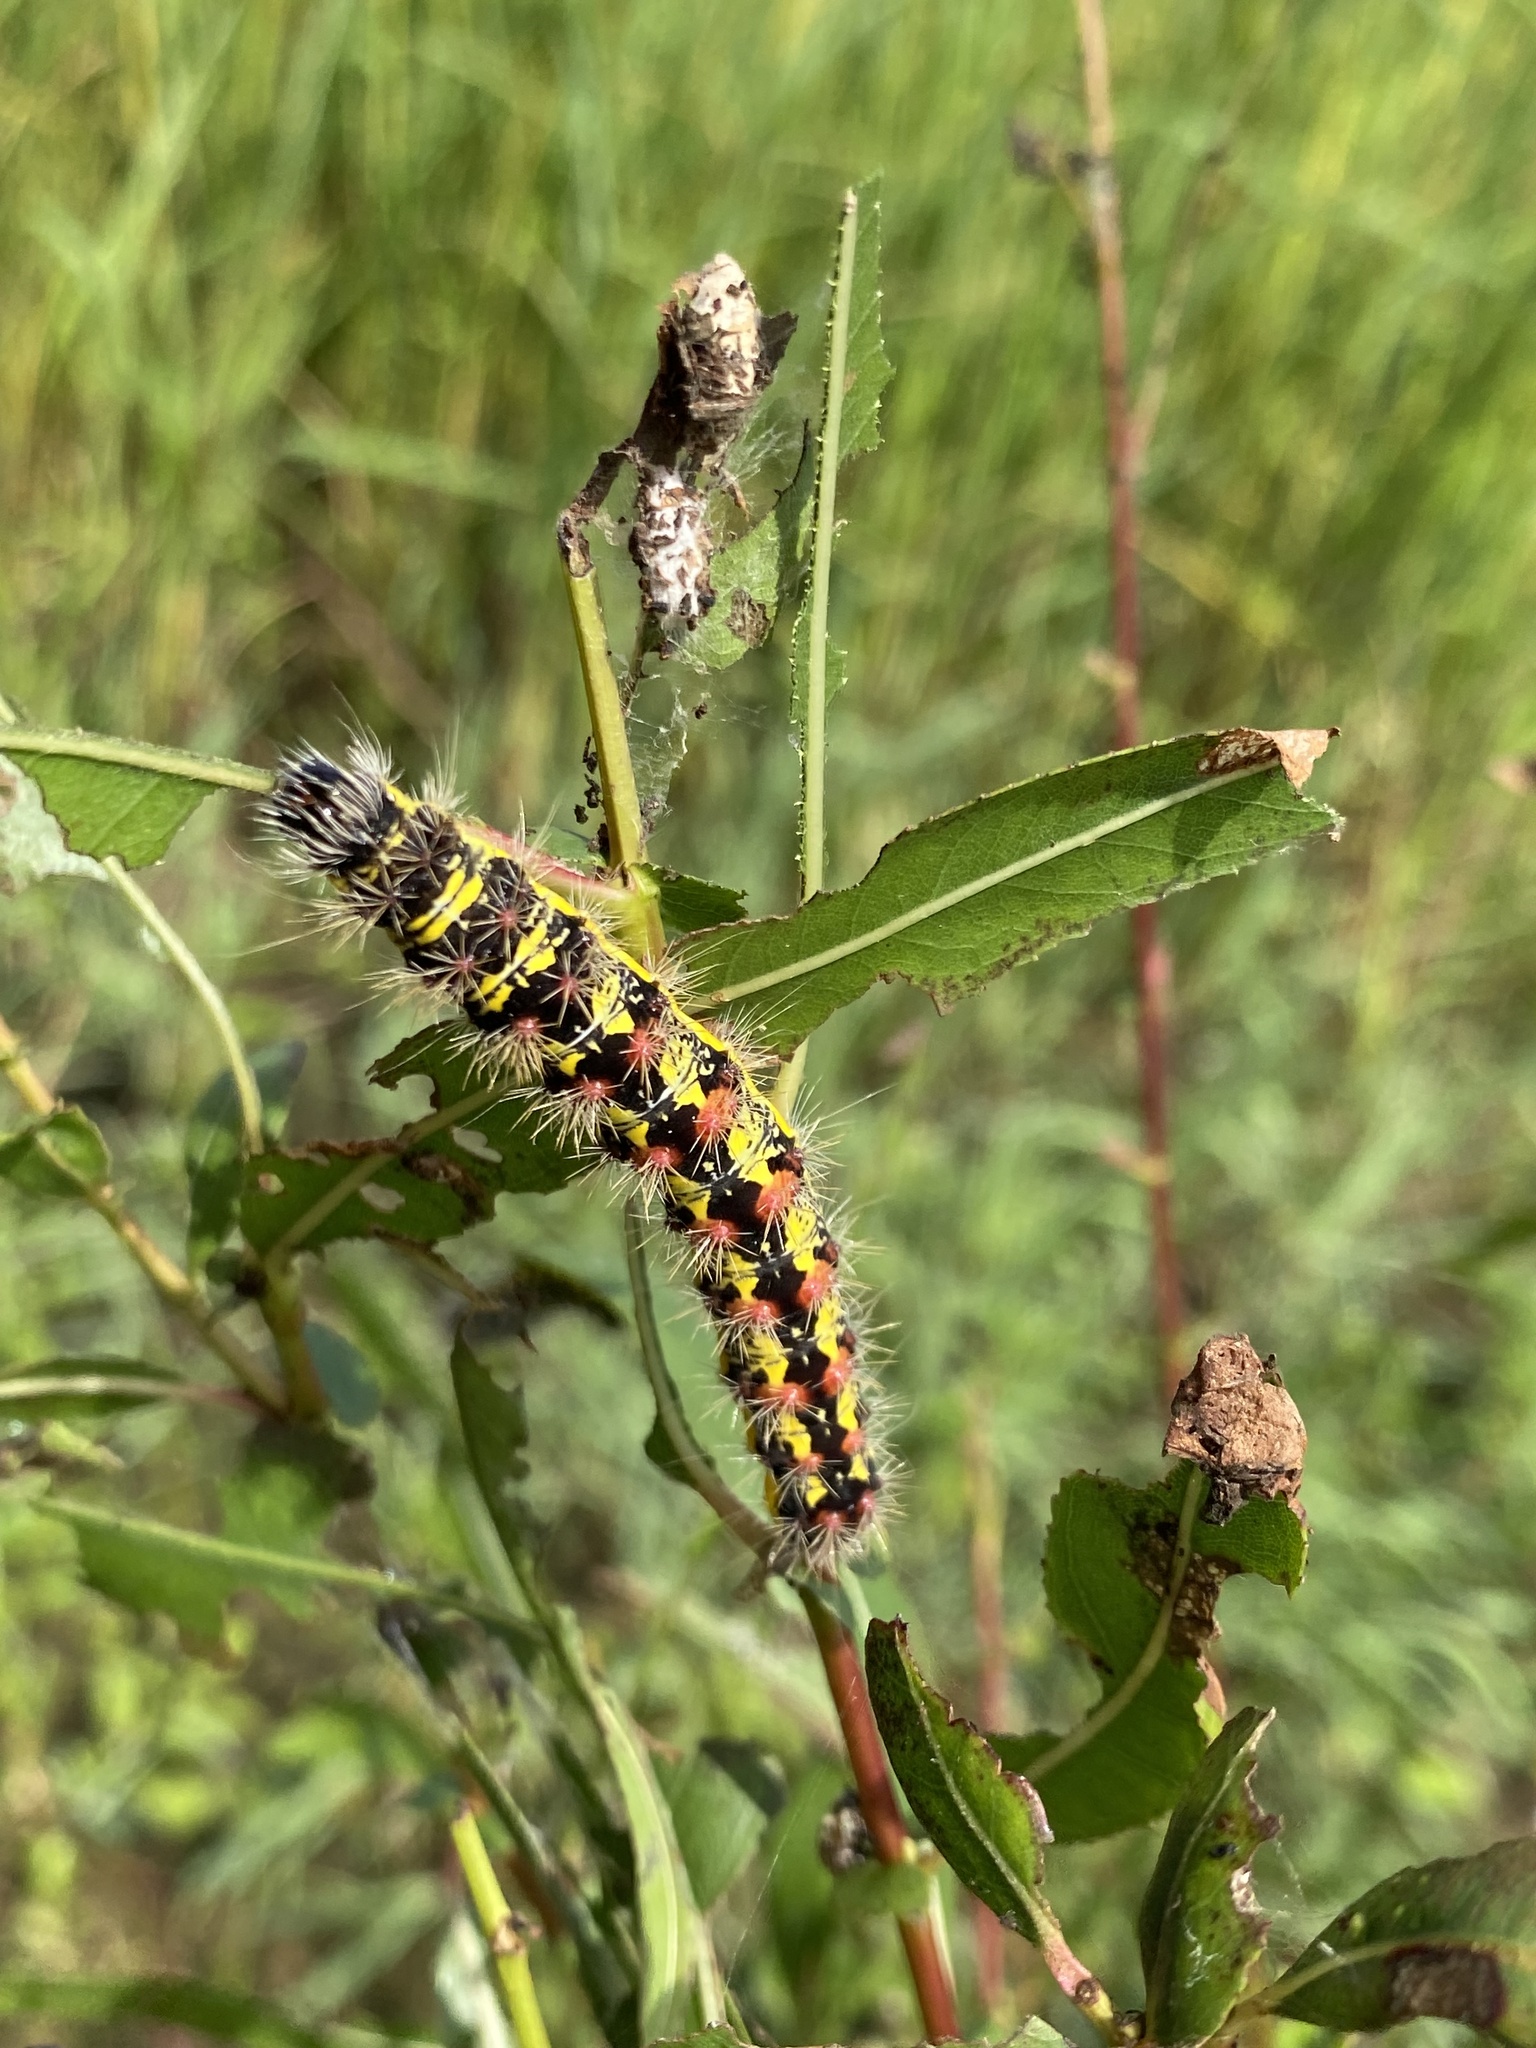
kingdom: Animalia
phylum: Arthropoda
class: Insecta
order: Lepidoptera
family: Noctuidae
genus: Acronicta
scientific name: Acronicta oblinita
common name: Smeared dagger
